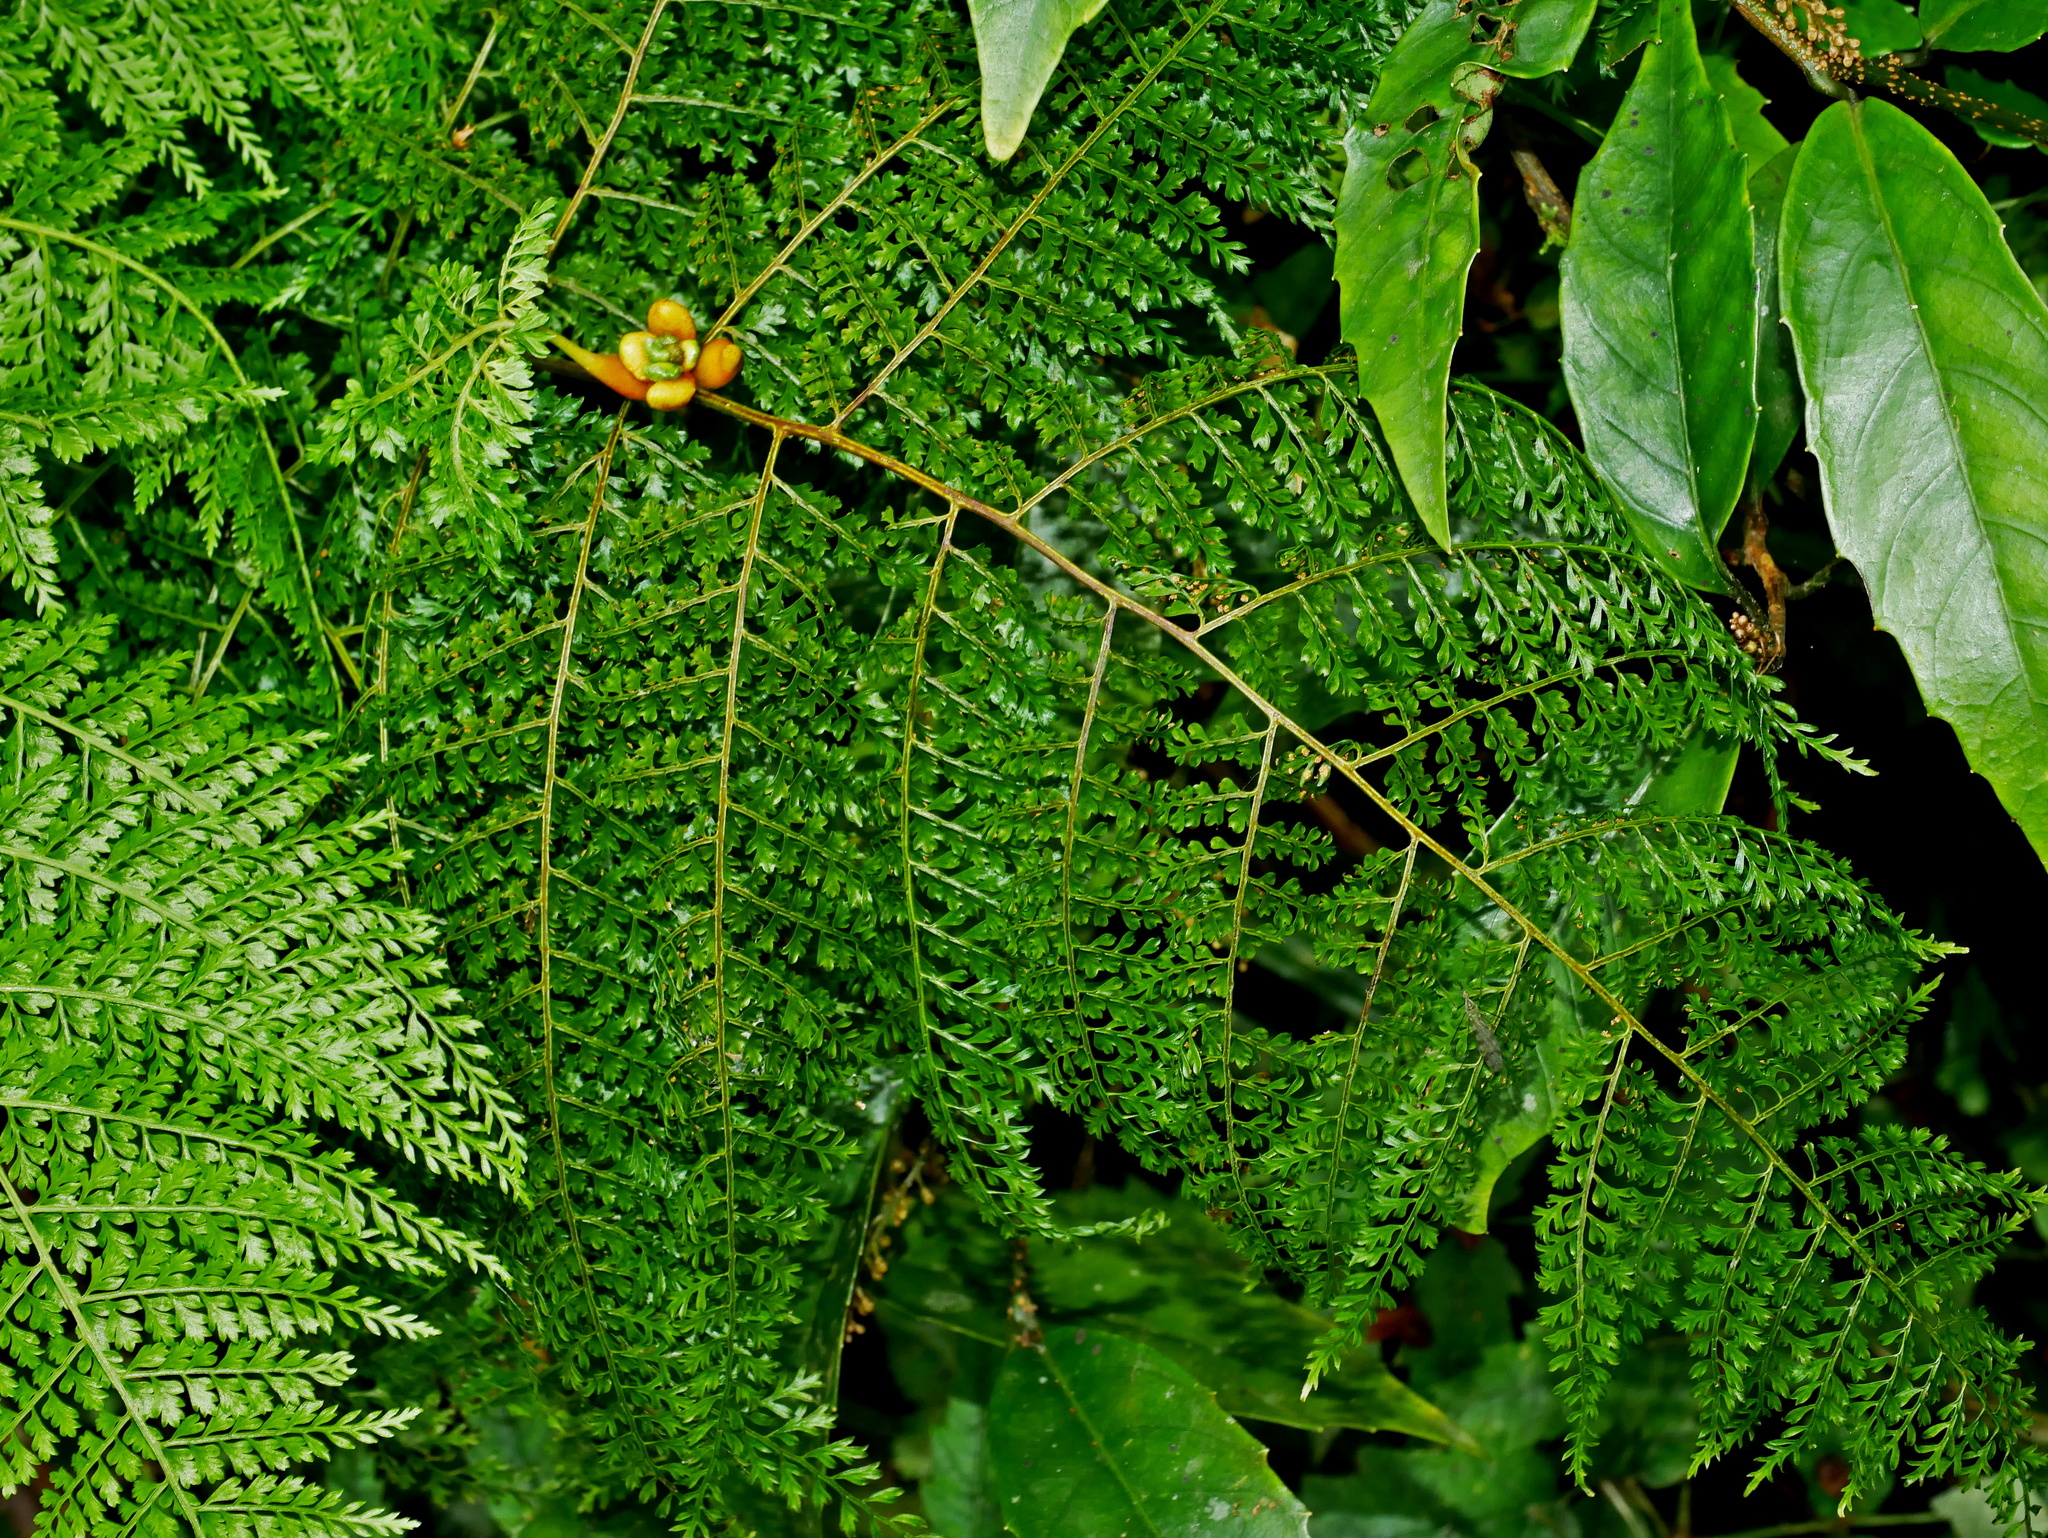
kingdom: Plantae
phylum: Tracheophyta
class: Polypodiopsida
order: Polypodiales
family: Dennstaedtiaceae
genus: Monachosorum
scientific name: Monachosorum henryi
